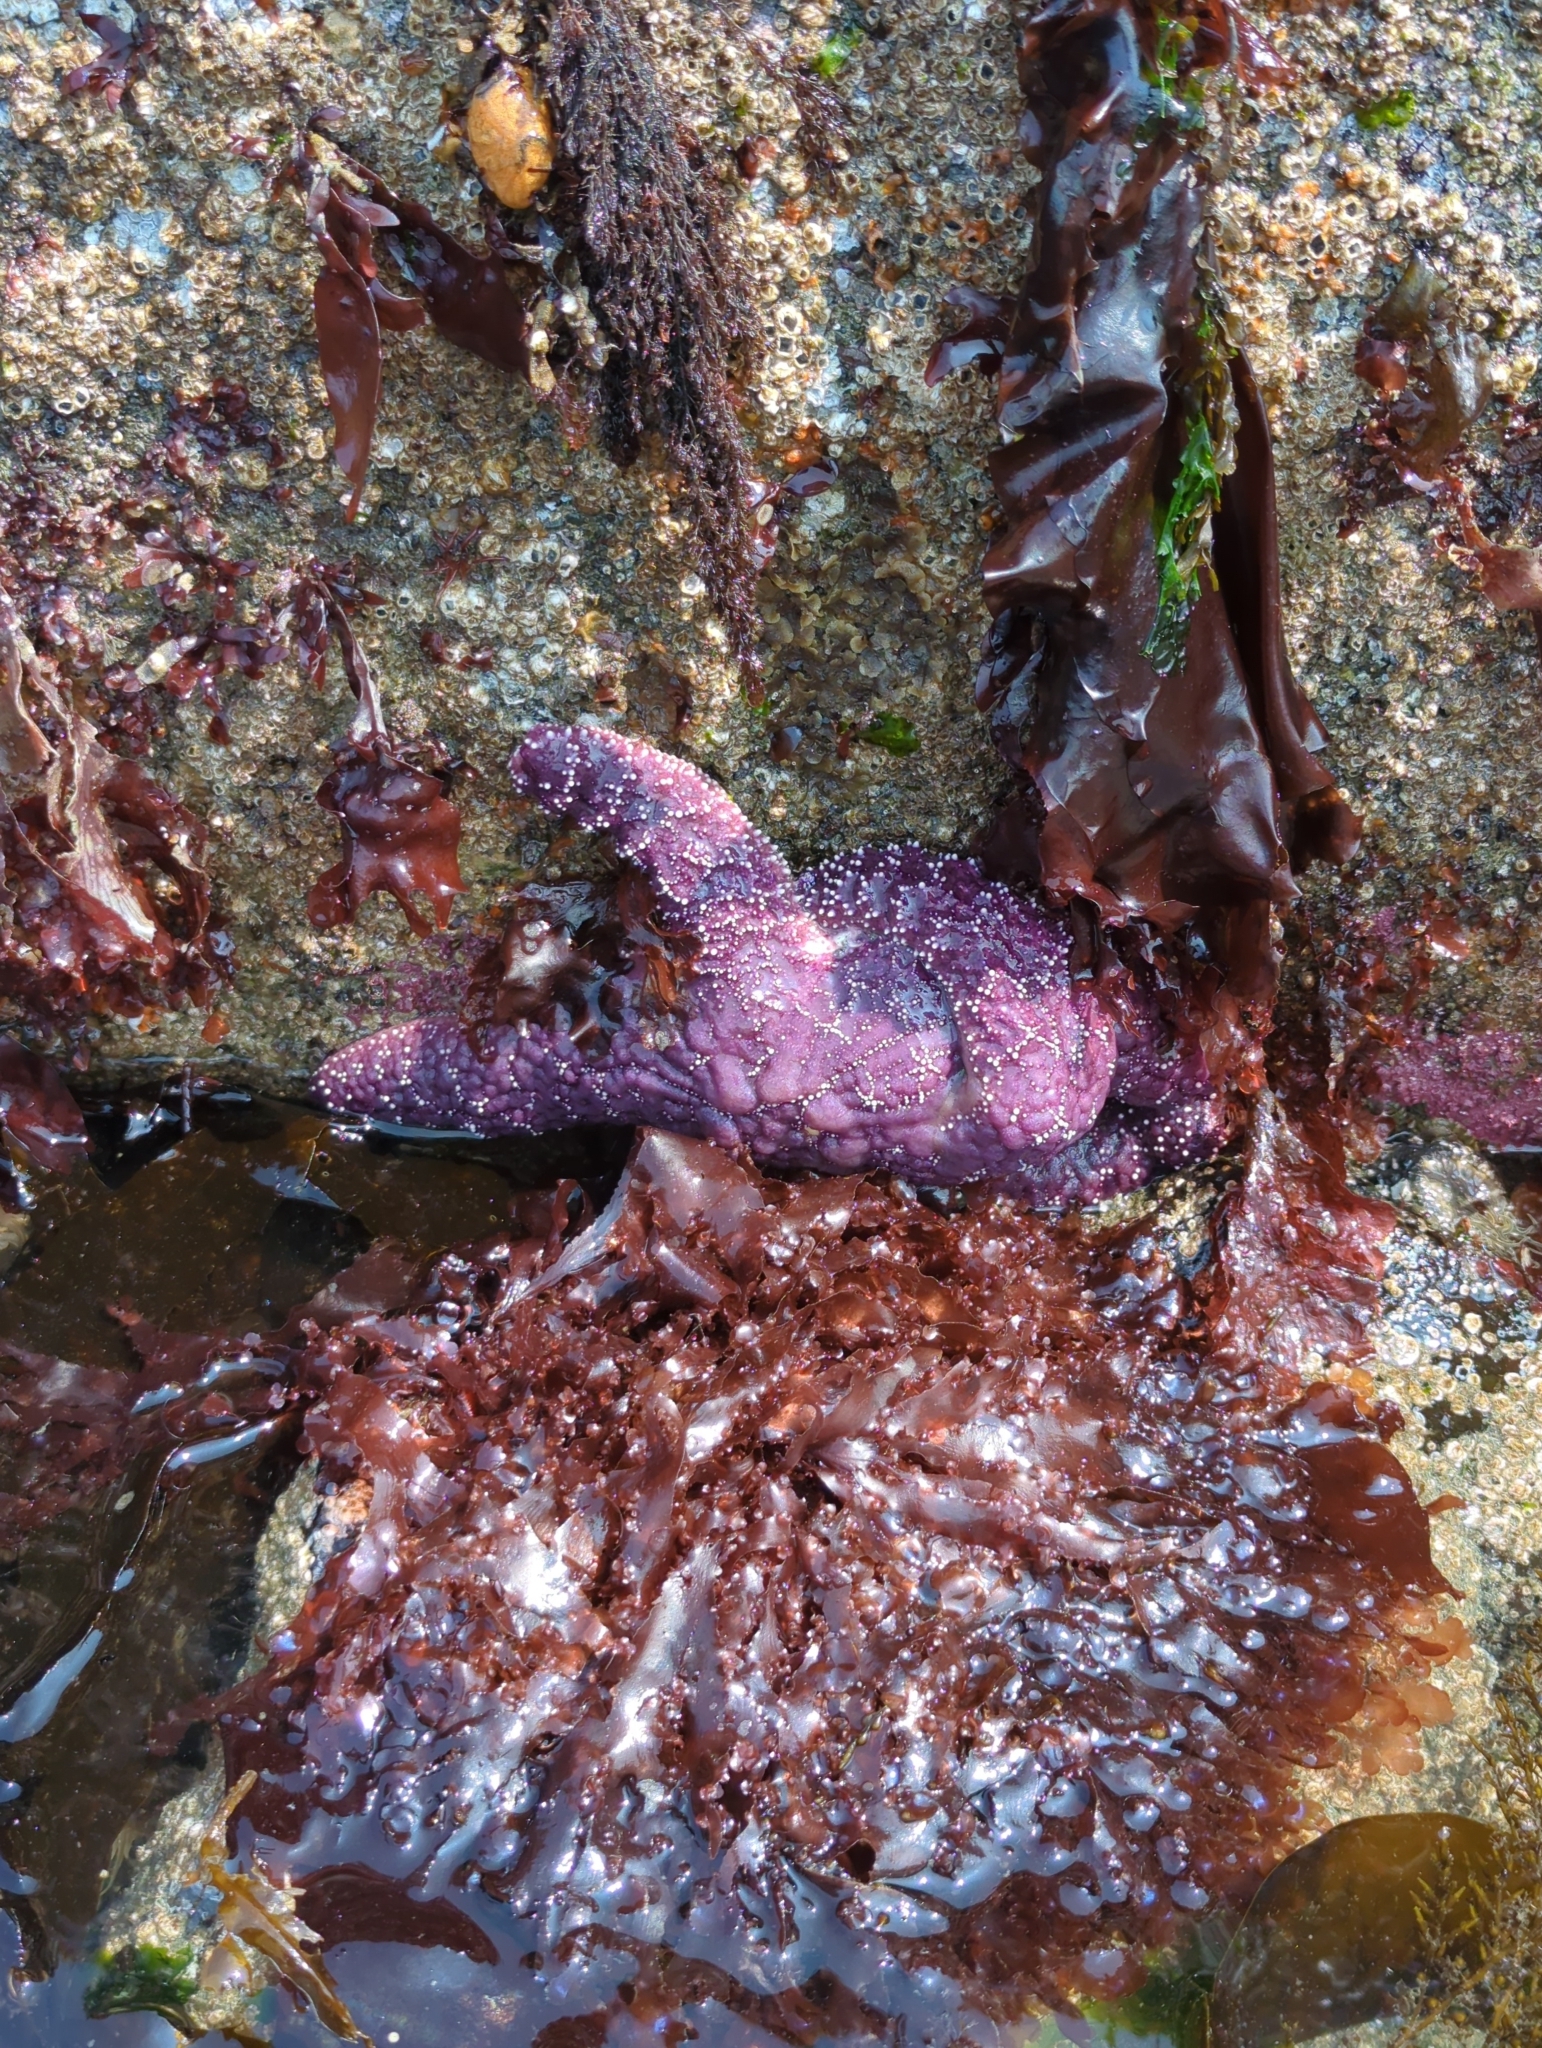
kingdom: Animalia
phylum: Echinodermata
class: Asteroidea
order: Forcipulatida
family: Asteriidae
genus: Pisaster
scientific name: Pisaster ochraceus
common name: Ochre stars
